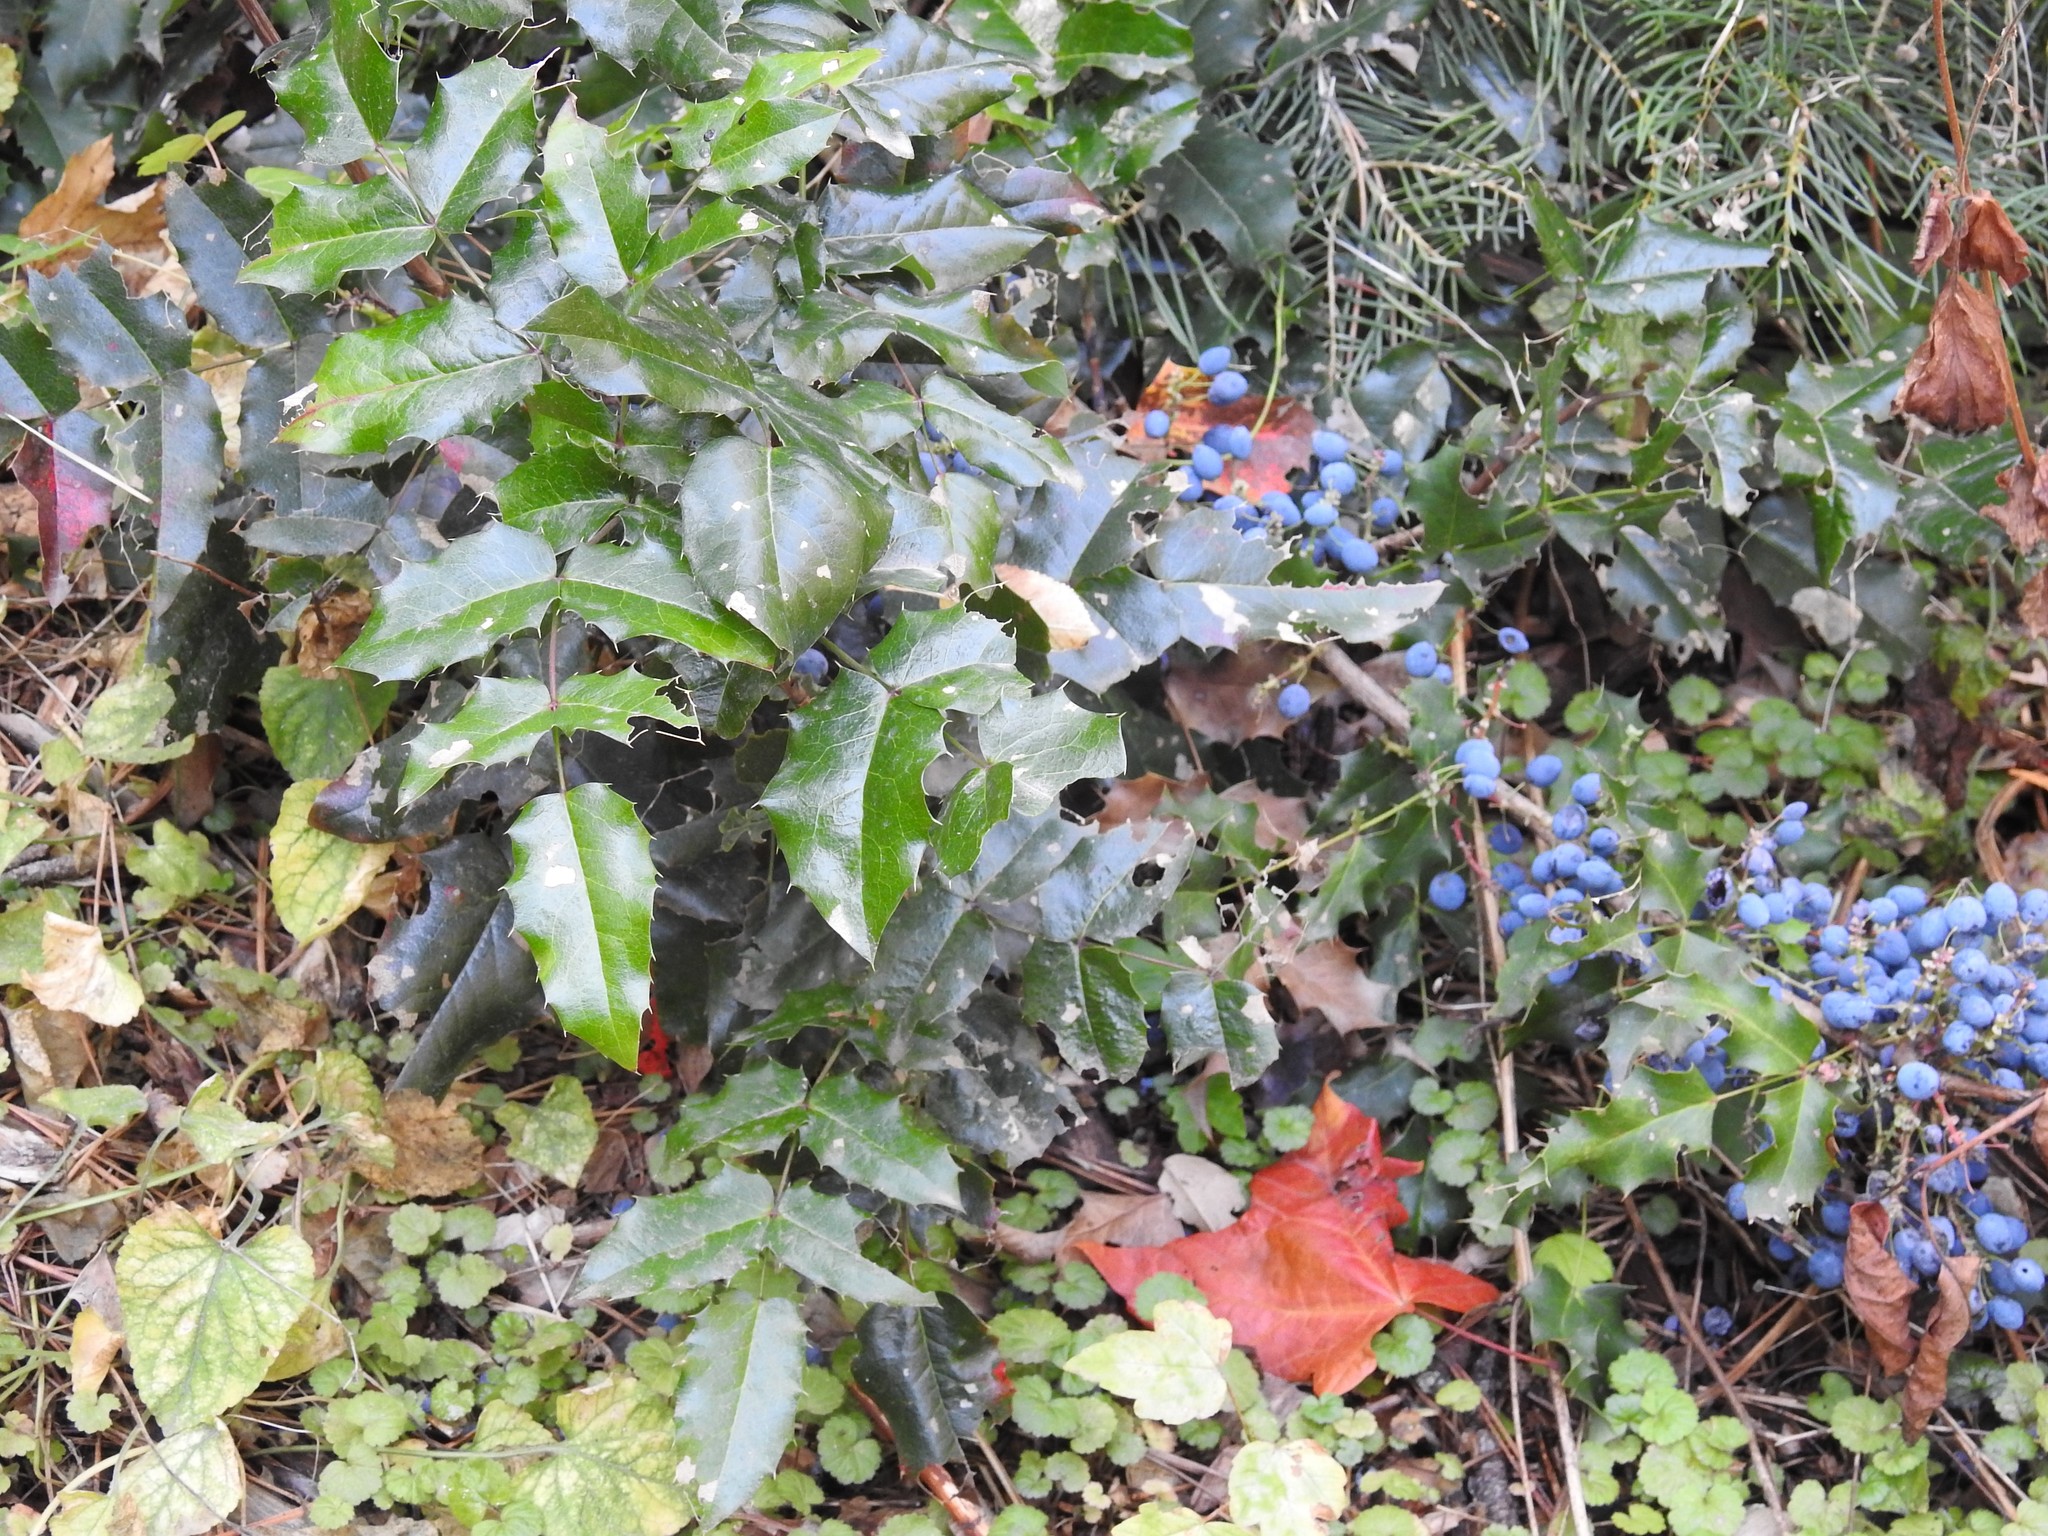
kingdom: Plantae
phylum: Tracheophyta
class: Magnoliopsida
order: Ranunculales
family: Berberidaceae
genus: Mahonia
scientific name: Mahonia aquifolium
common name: Oregon-grape
